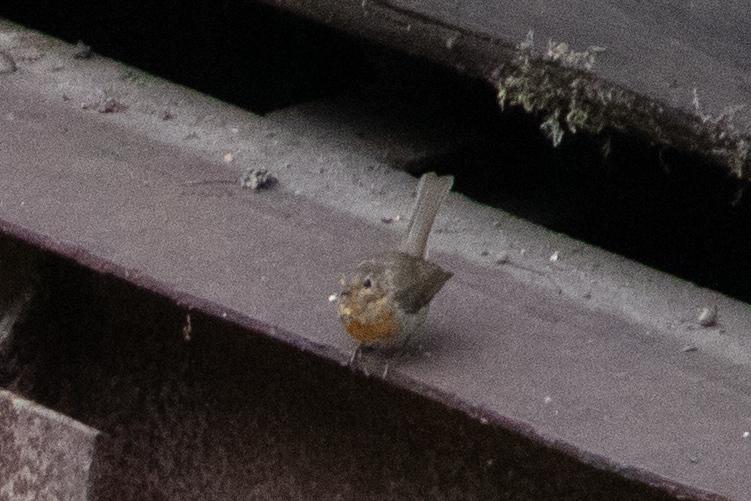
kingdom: Animalia
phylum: Chordata
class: Aves
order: Passeriformes
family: Muscicapidae
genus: Erithacus
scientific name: Erithacus rubecula
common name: European robin
